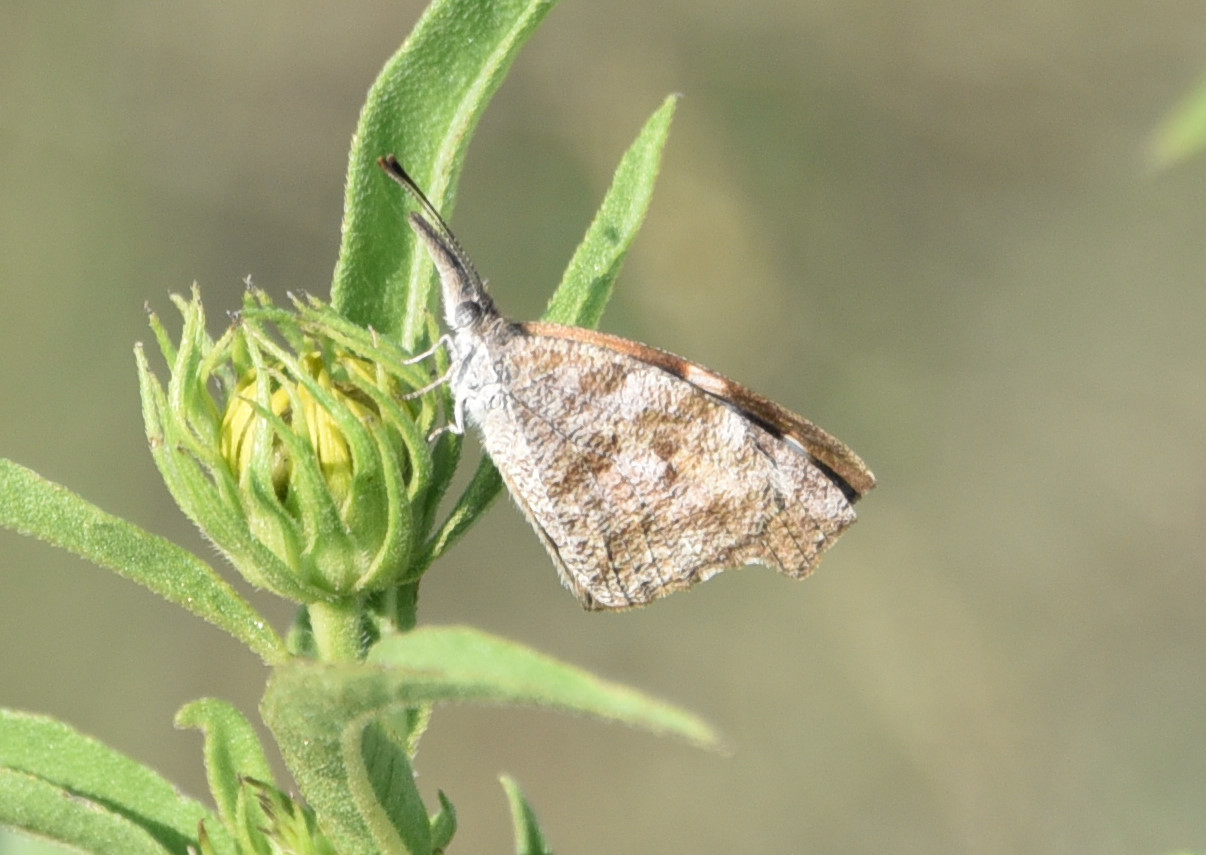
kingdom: Animalia
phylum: Arthropoda
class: Insecta
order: Lepidoptera
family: Nymphalidae
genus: Libytheana
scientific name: Libytheana carinenta
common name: American snout
